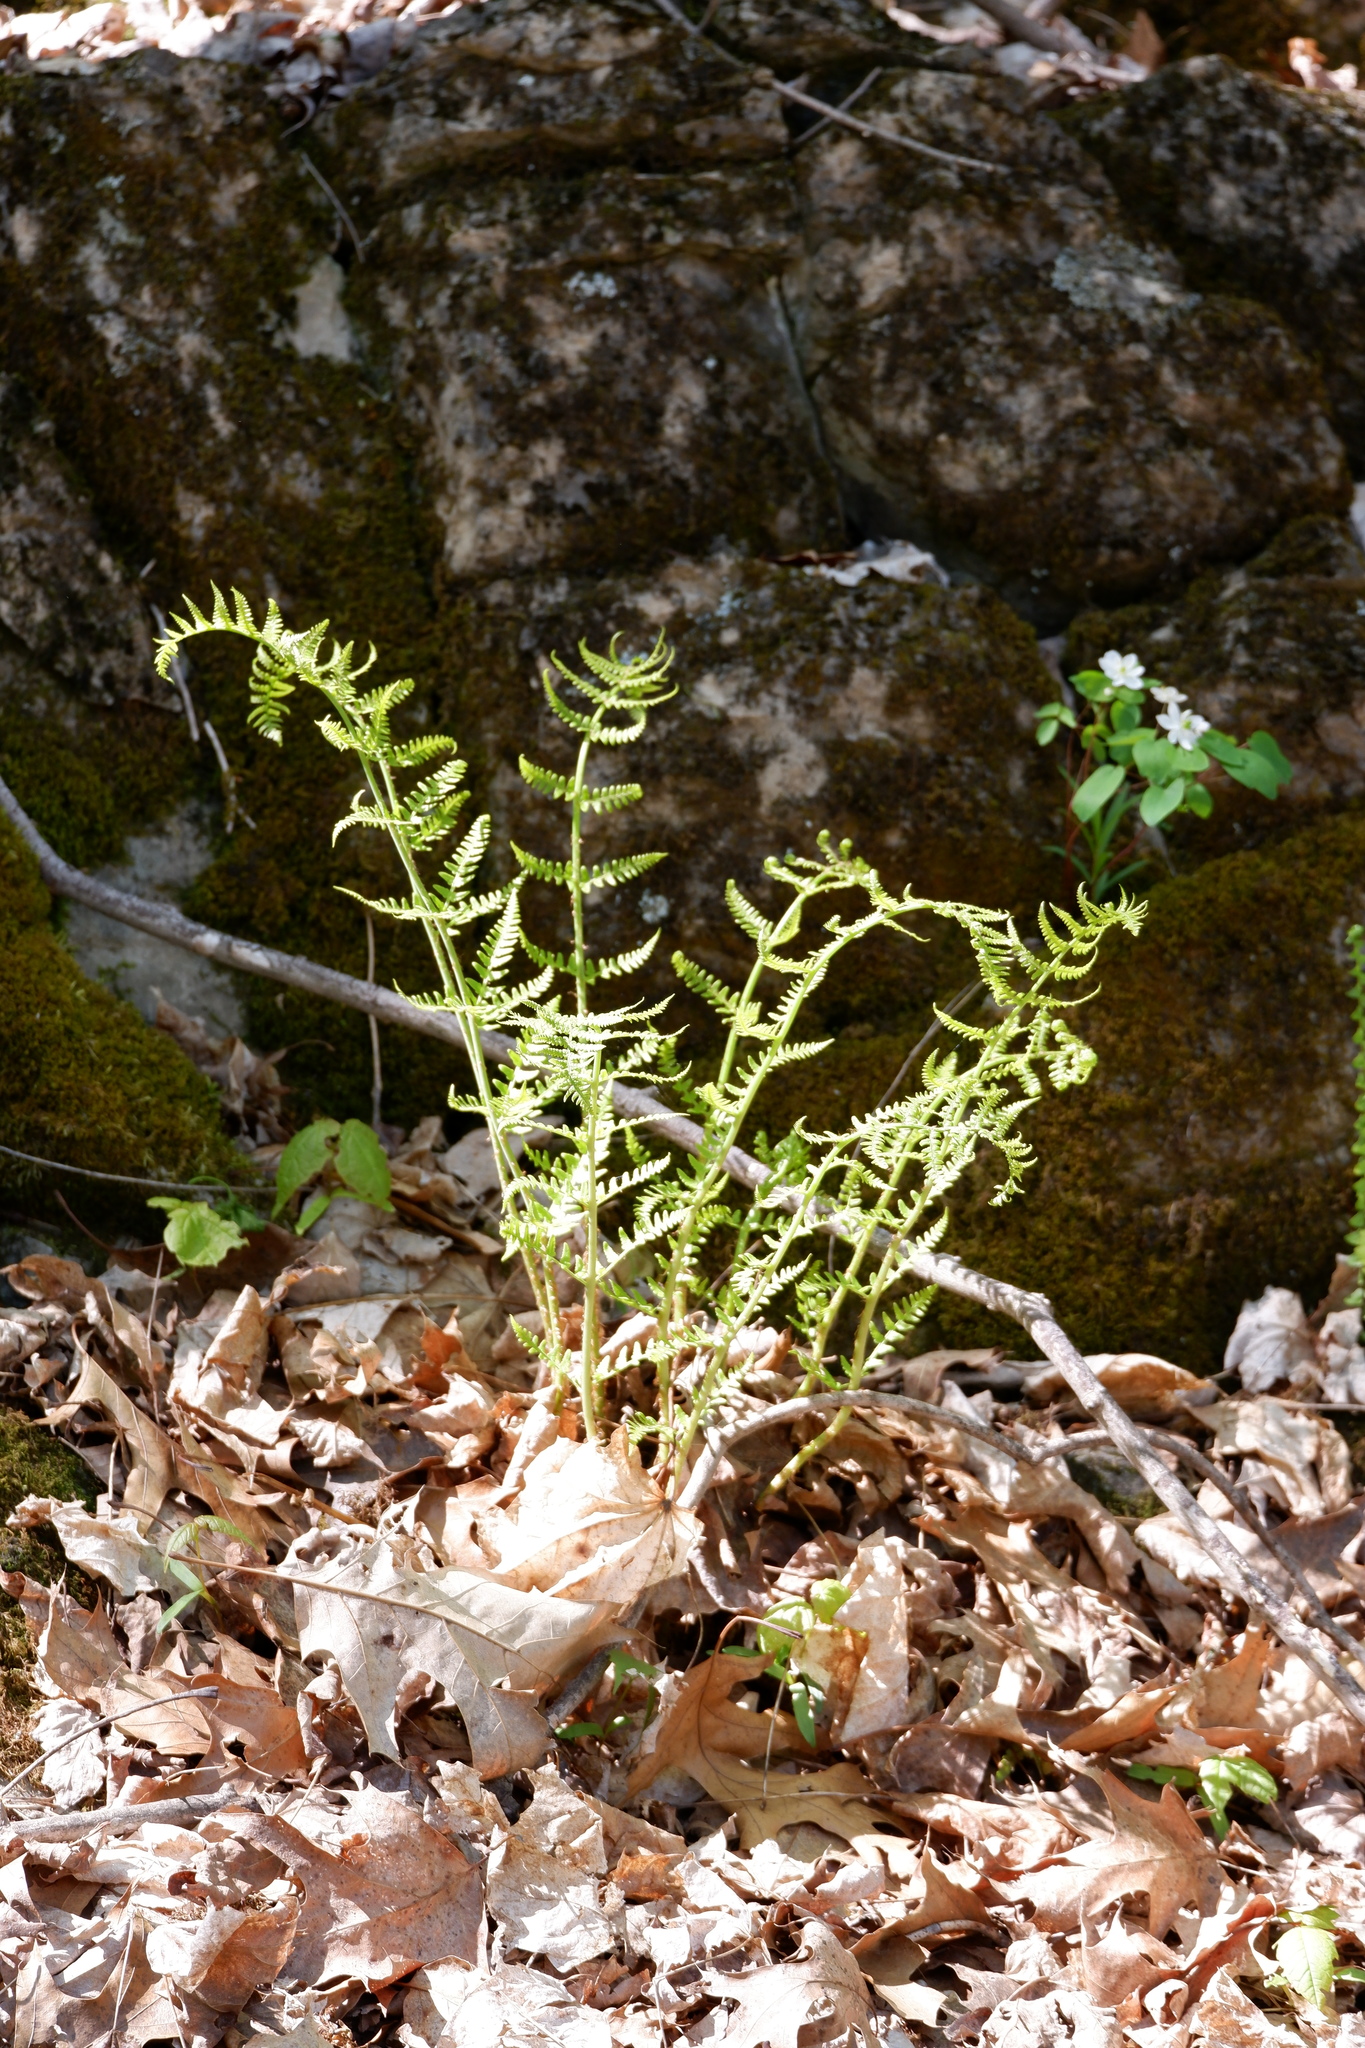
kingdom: Plantae
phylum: Tracheophyta
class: Polypodiopsida
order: Polypodiales
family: Dryopteridaceae
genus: Dryopteris
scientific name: Dryopteris marginalis
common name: Marginal wood fern
